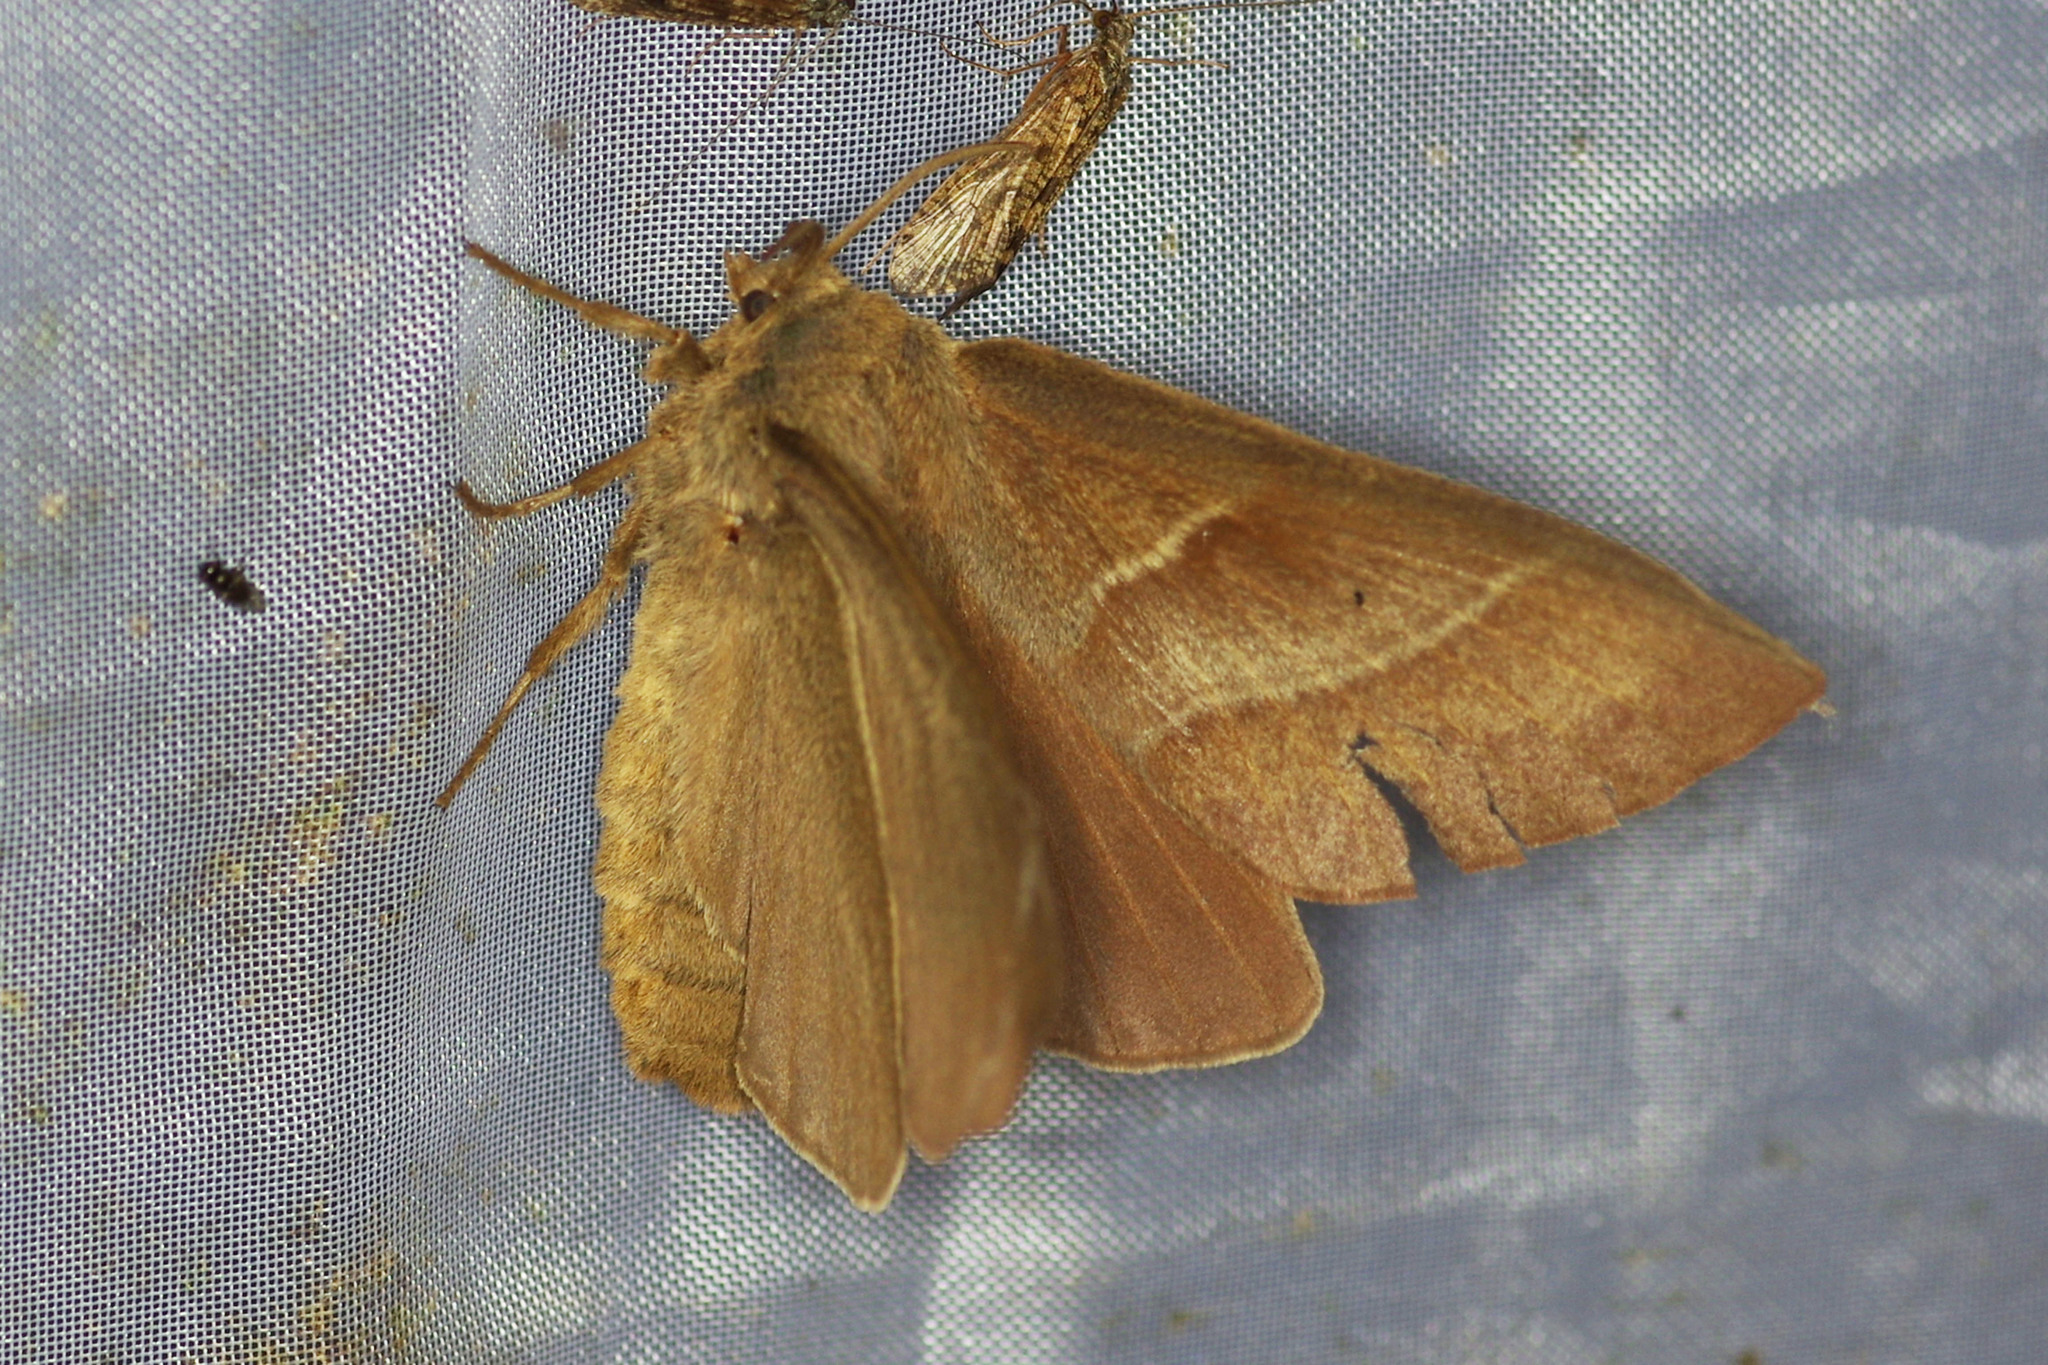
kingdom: Animalia
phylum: Arthropoda
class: Insecta
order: Lepidoptera
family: Lasiocampidae
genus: Macrothylacia
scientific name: Macrothylacia rubi
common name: Fox moth
